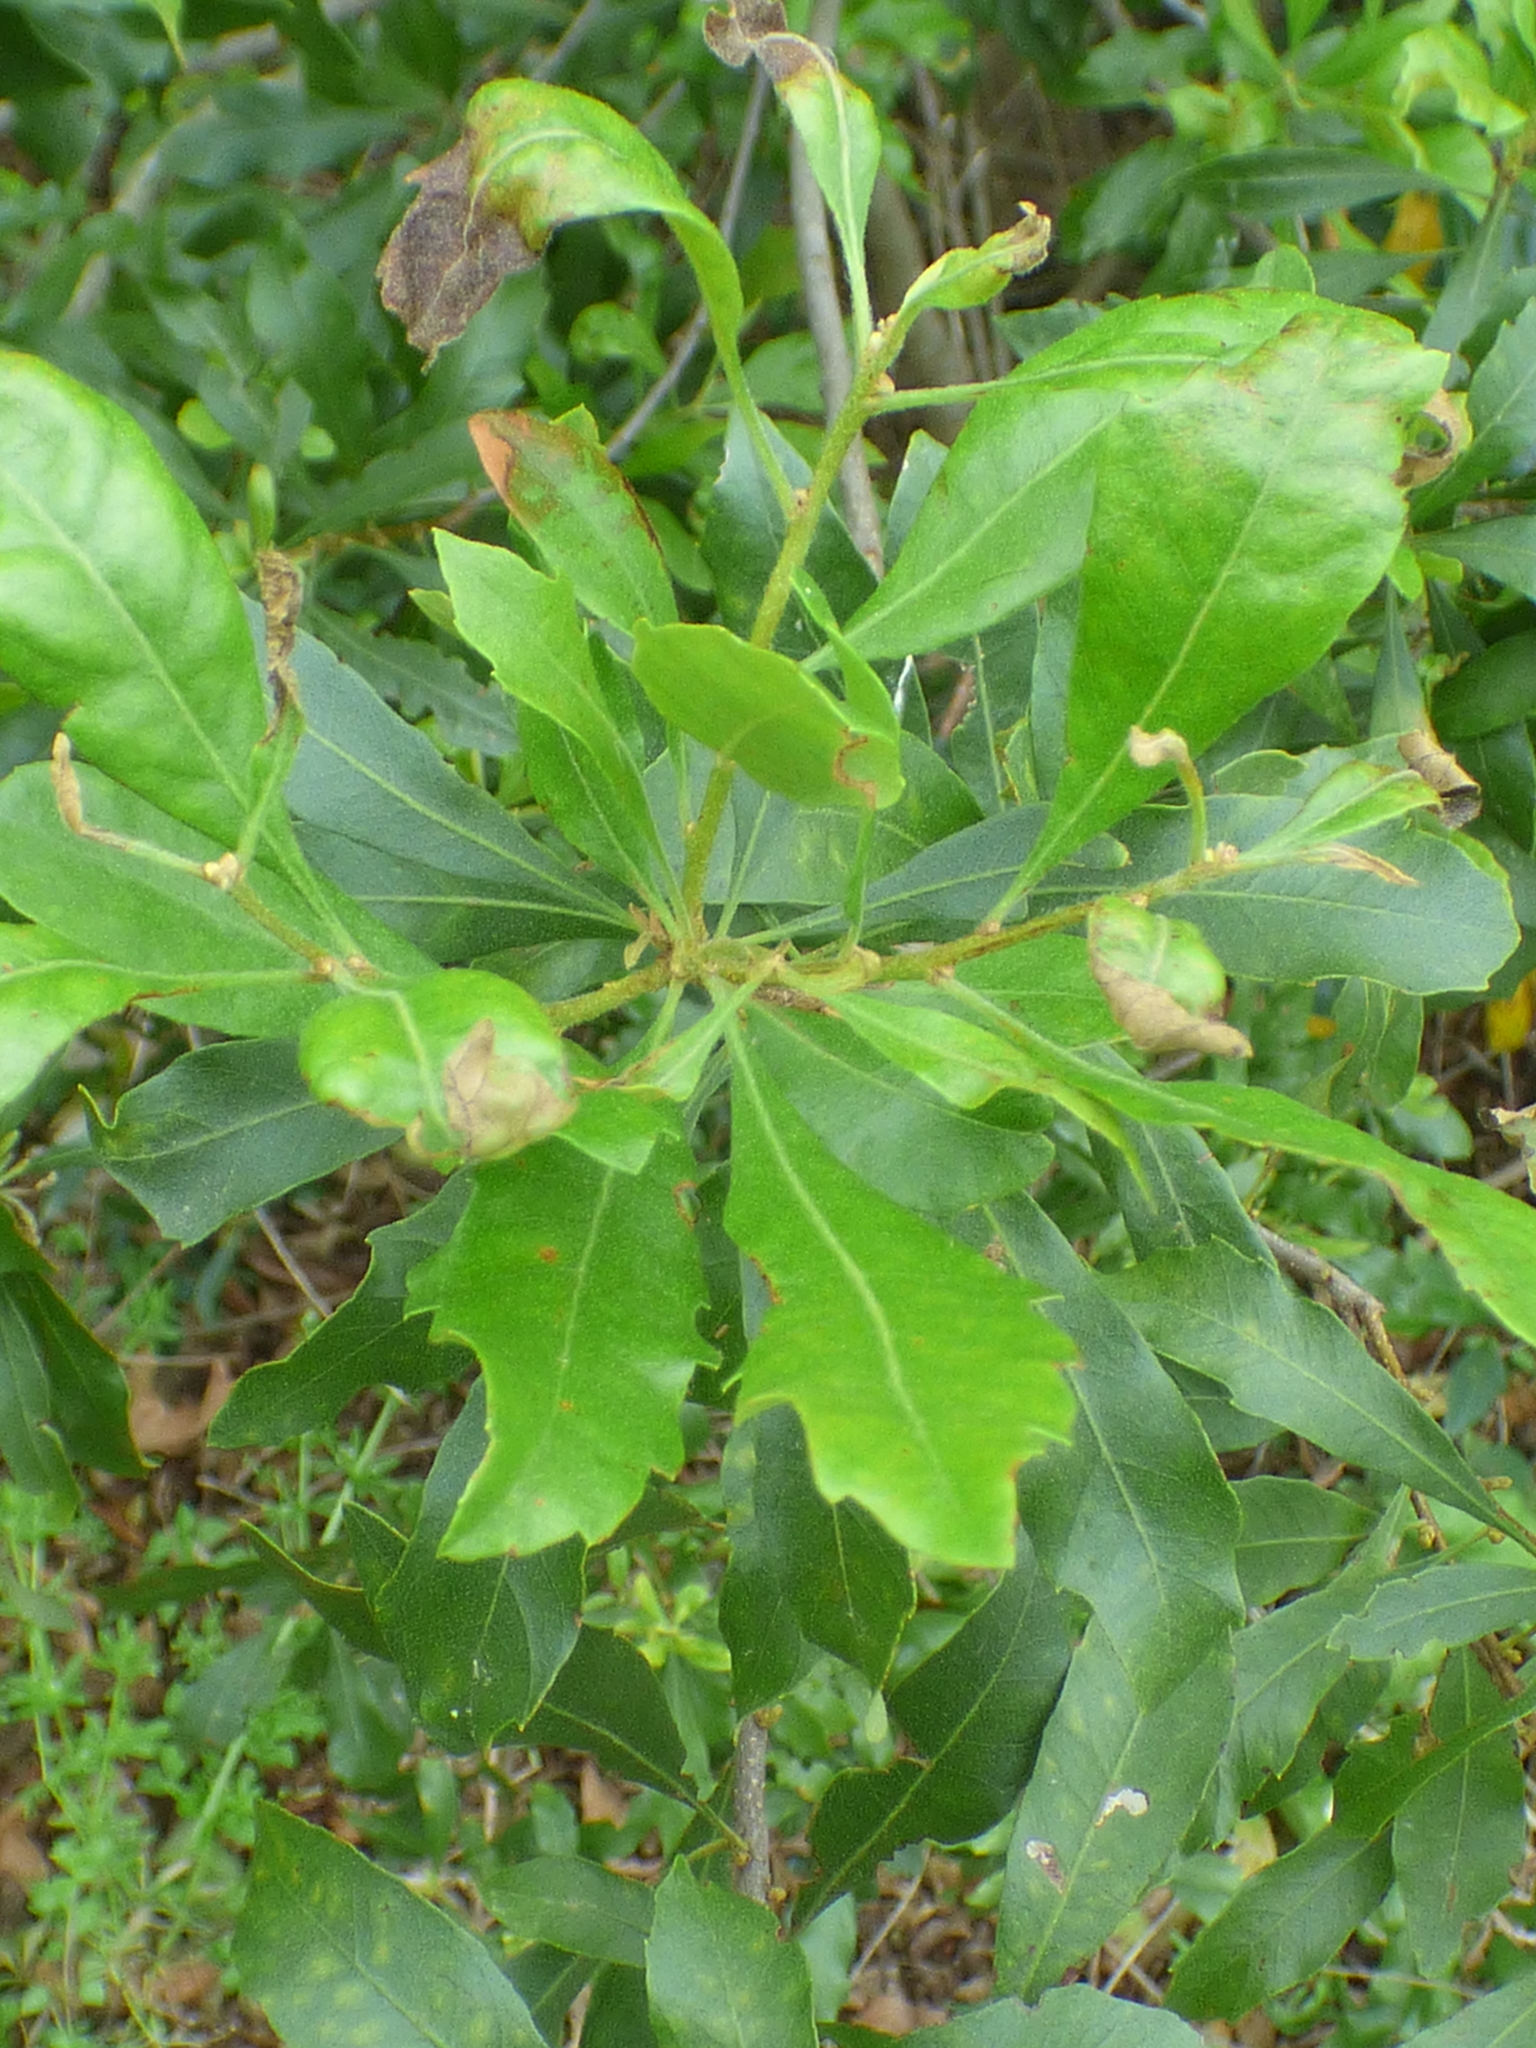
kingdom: Plantae
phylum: Tracheophyta
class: Magnoliopsida
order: Fagales
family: Myricaceae
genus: Morella
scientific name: Morella cerifera
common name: Wax myrtle
